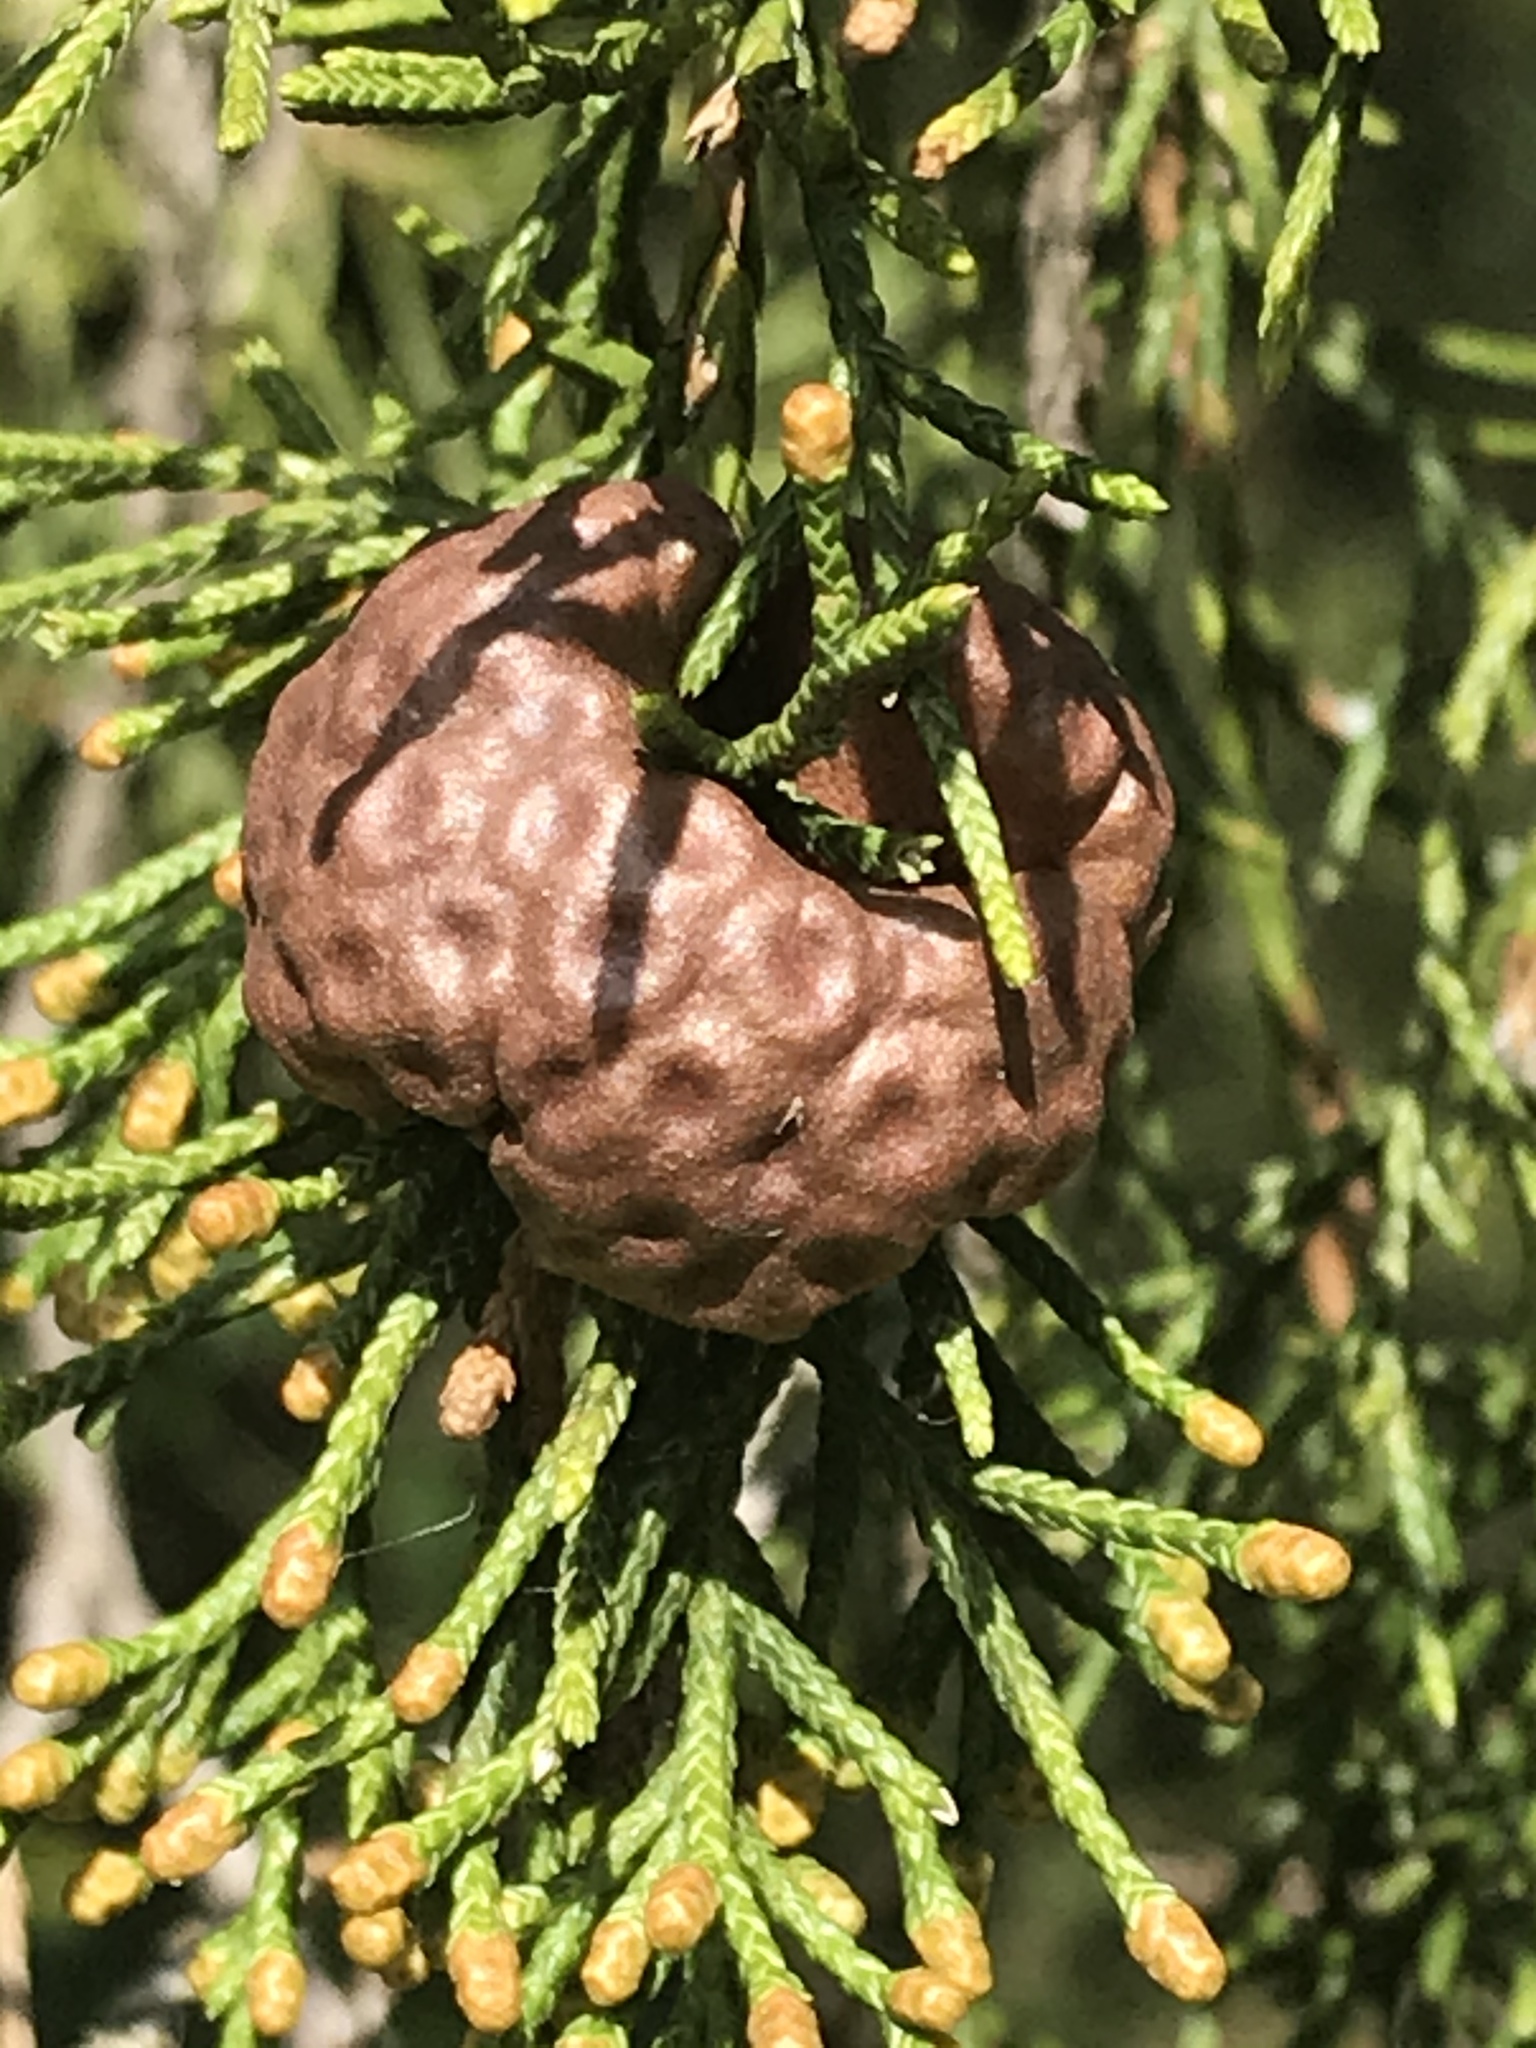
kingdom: Fungi
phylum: Basidiomycota
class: Pucciniomycetes
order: Pucciniales
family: Gymnosporangiaceae
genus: Gymnosporangium
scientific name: Gymnosporangium juniperi-virginianae
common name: Juniper-apple rust
